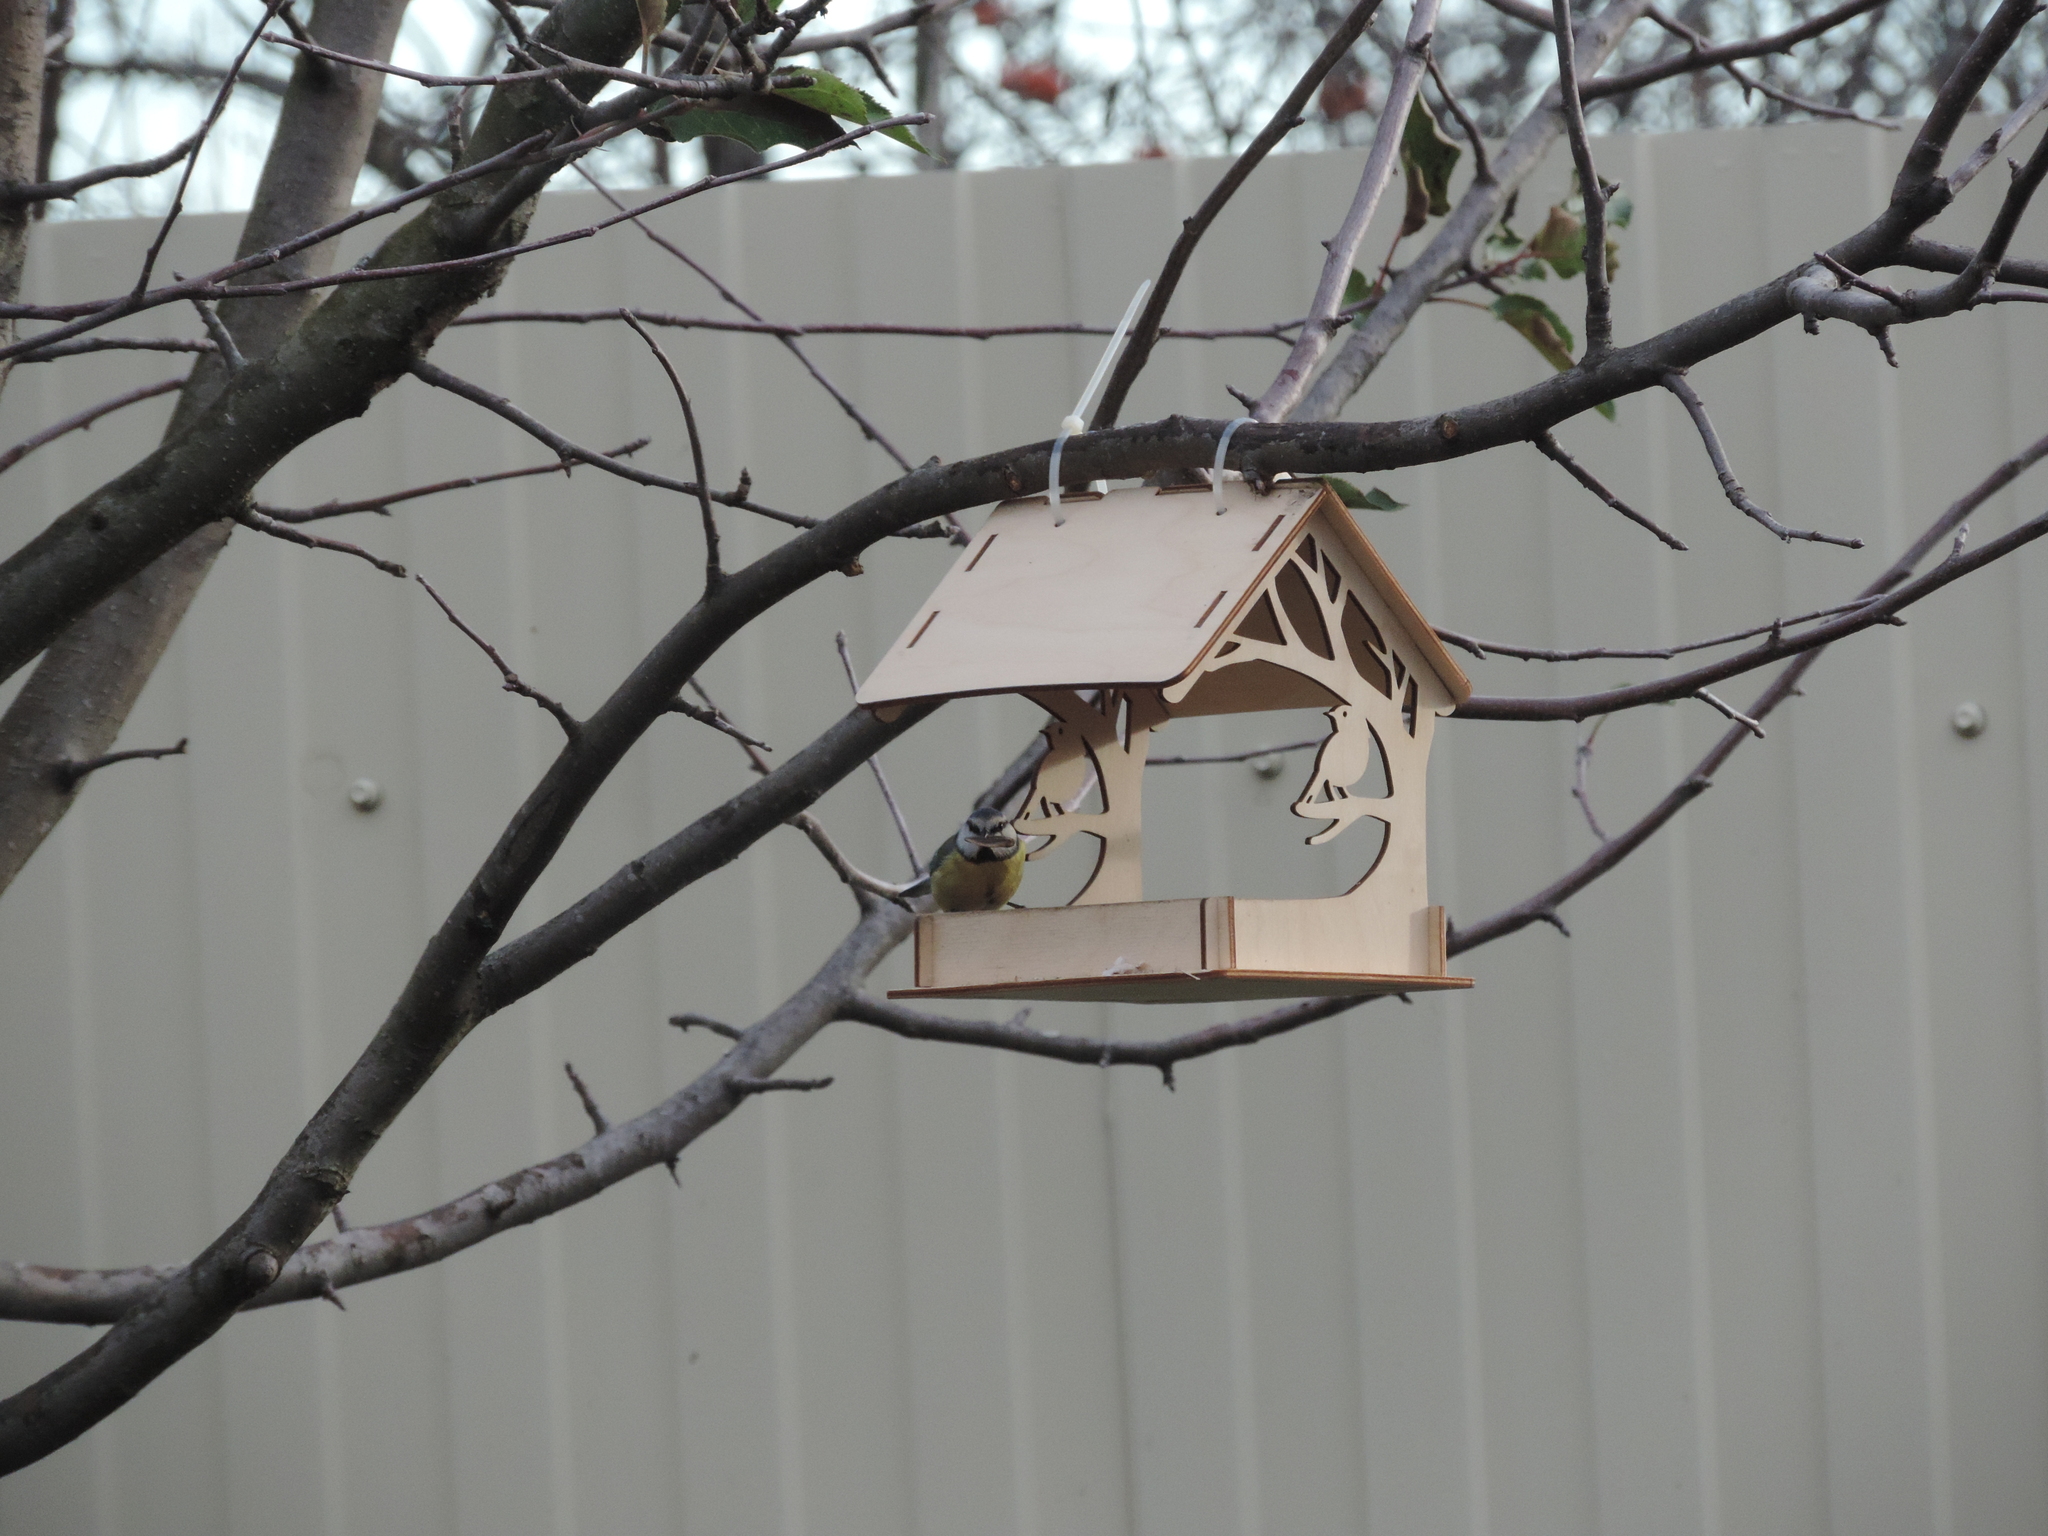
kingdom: Animalia
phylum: Chordata
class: Aves
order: Passeriformes
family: Paridae
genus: Cyanistes
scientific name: Cyanistes caeruleus
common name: Eurasian blue tit
